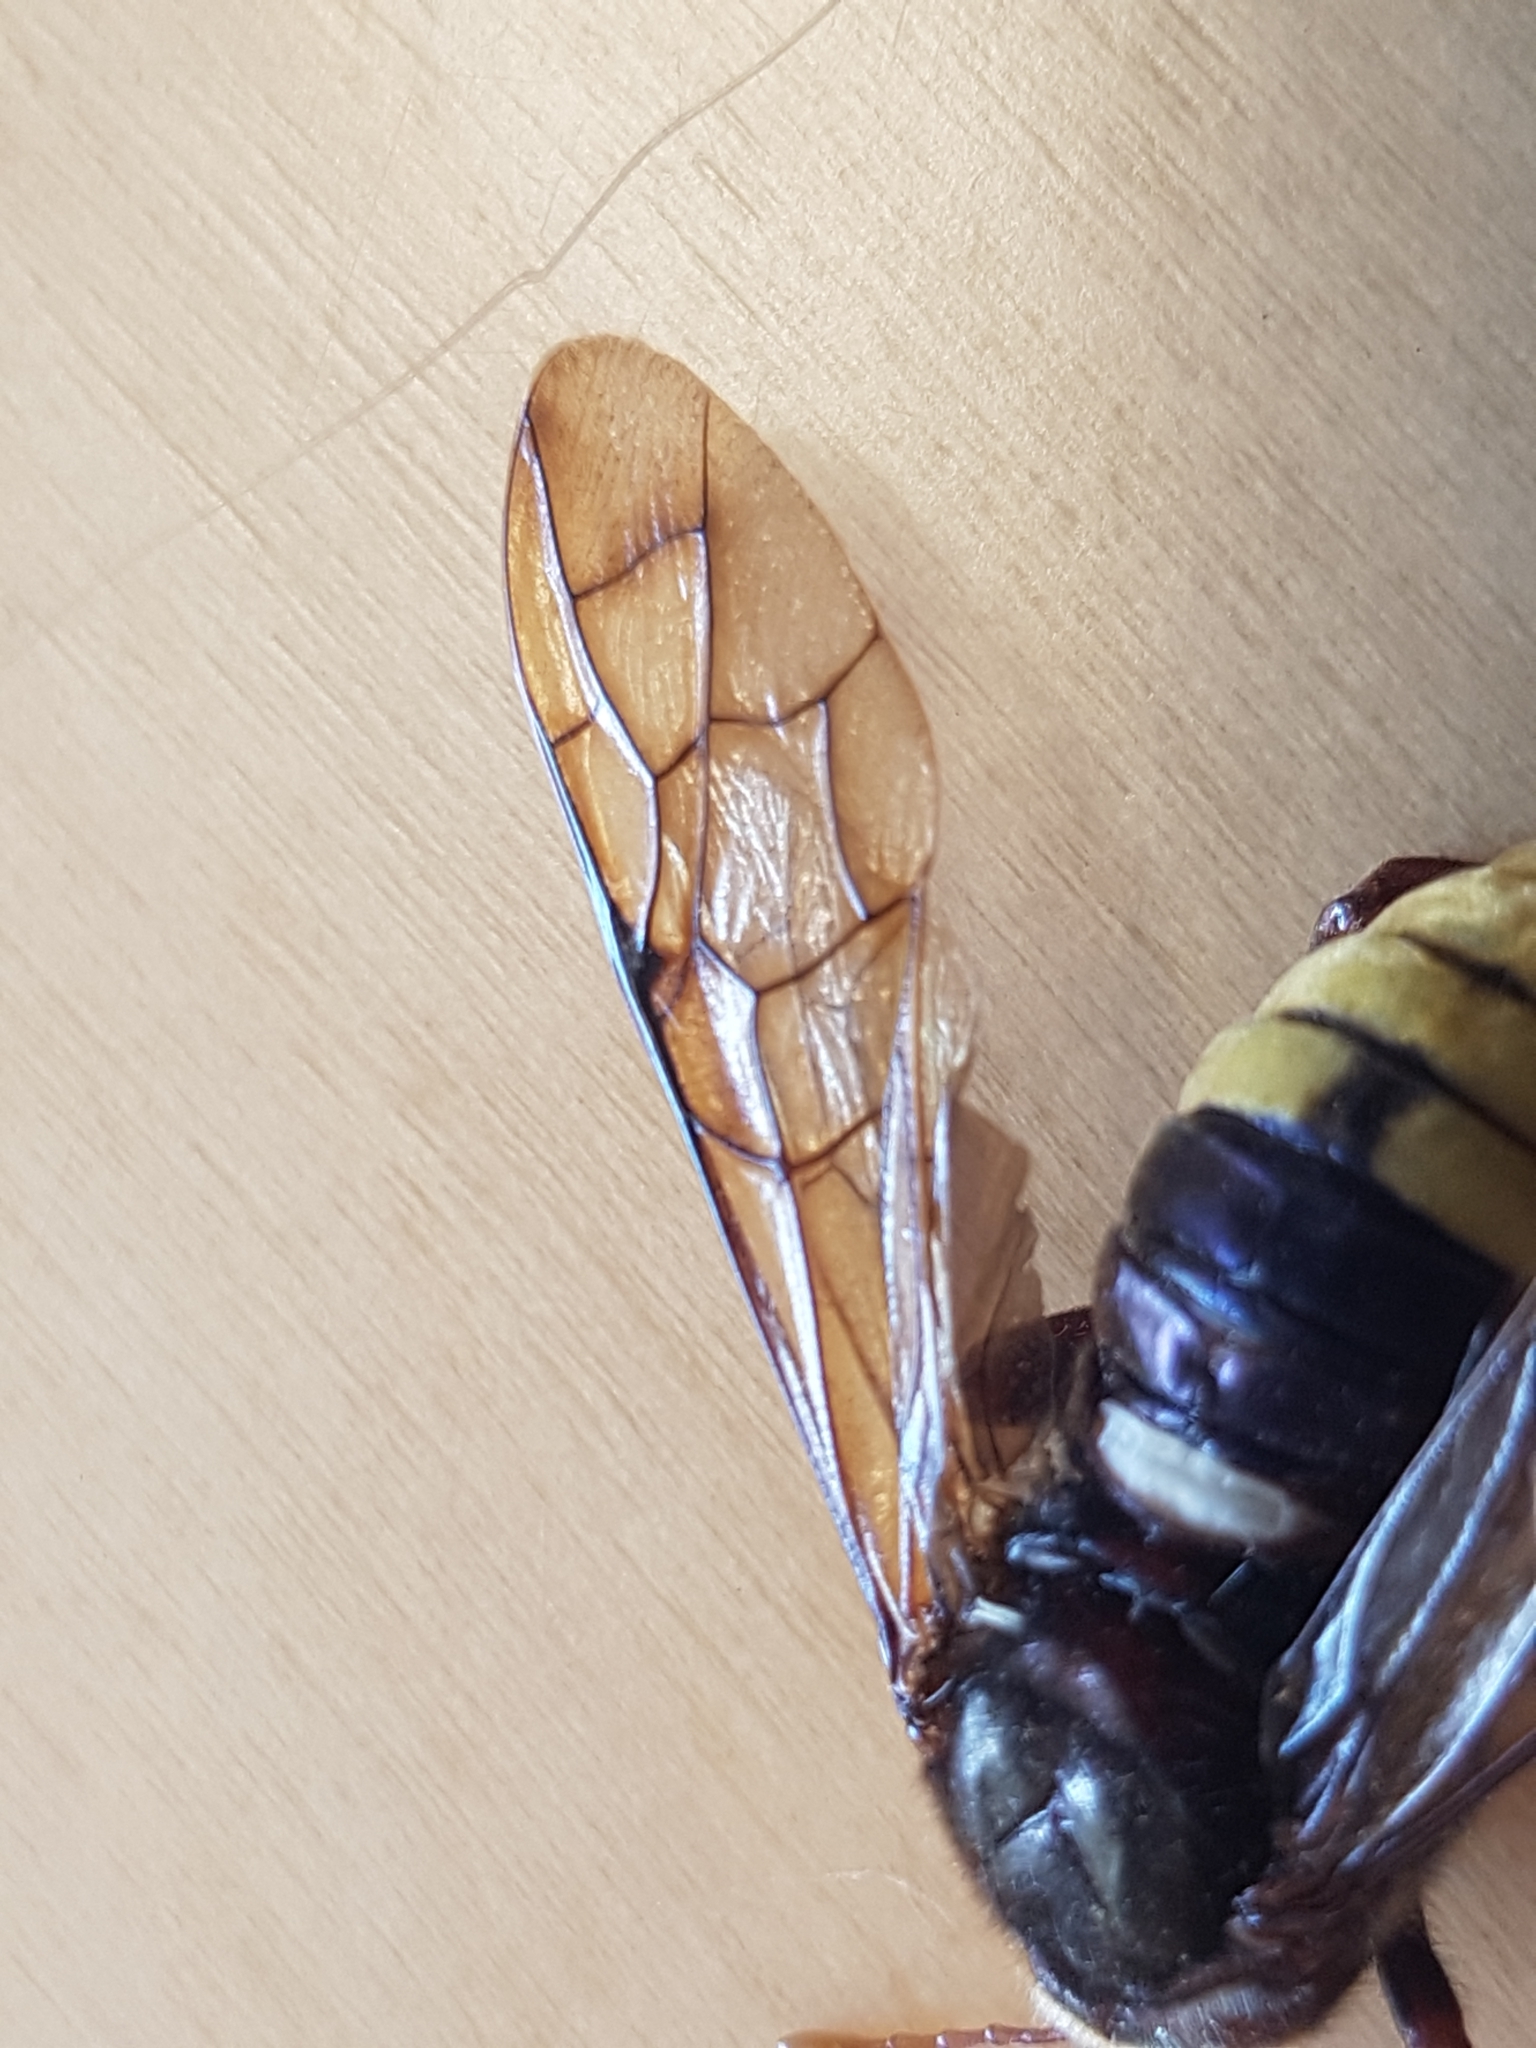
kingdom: Animalia
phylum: Arthropoda
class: Insecta
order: Hymenoptera
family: Cimbicidae
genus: Cimbex
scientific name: Cimbex connatus
